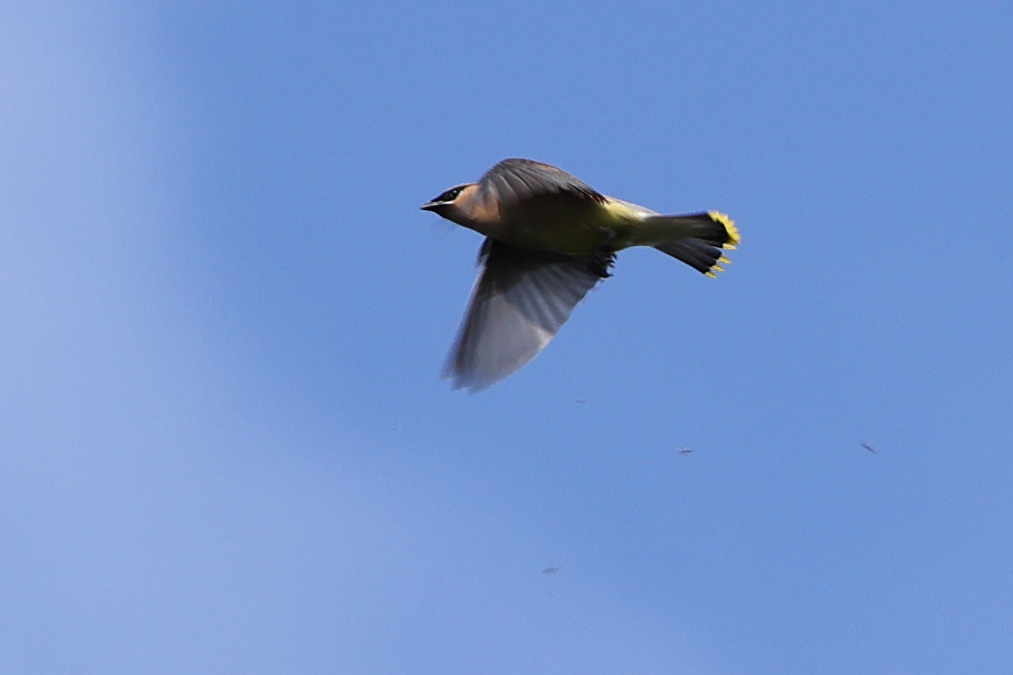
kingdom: Animalia
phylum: Chordata
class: Aves
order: Passeriformes
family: Bombycillidae
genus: Bombycilla
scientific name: Bombycilla cedrorum
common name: Cedar waxwing
